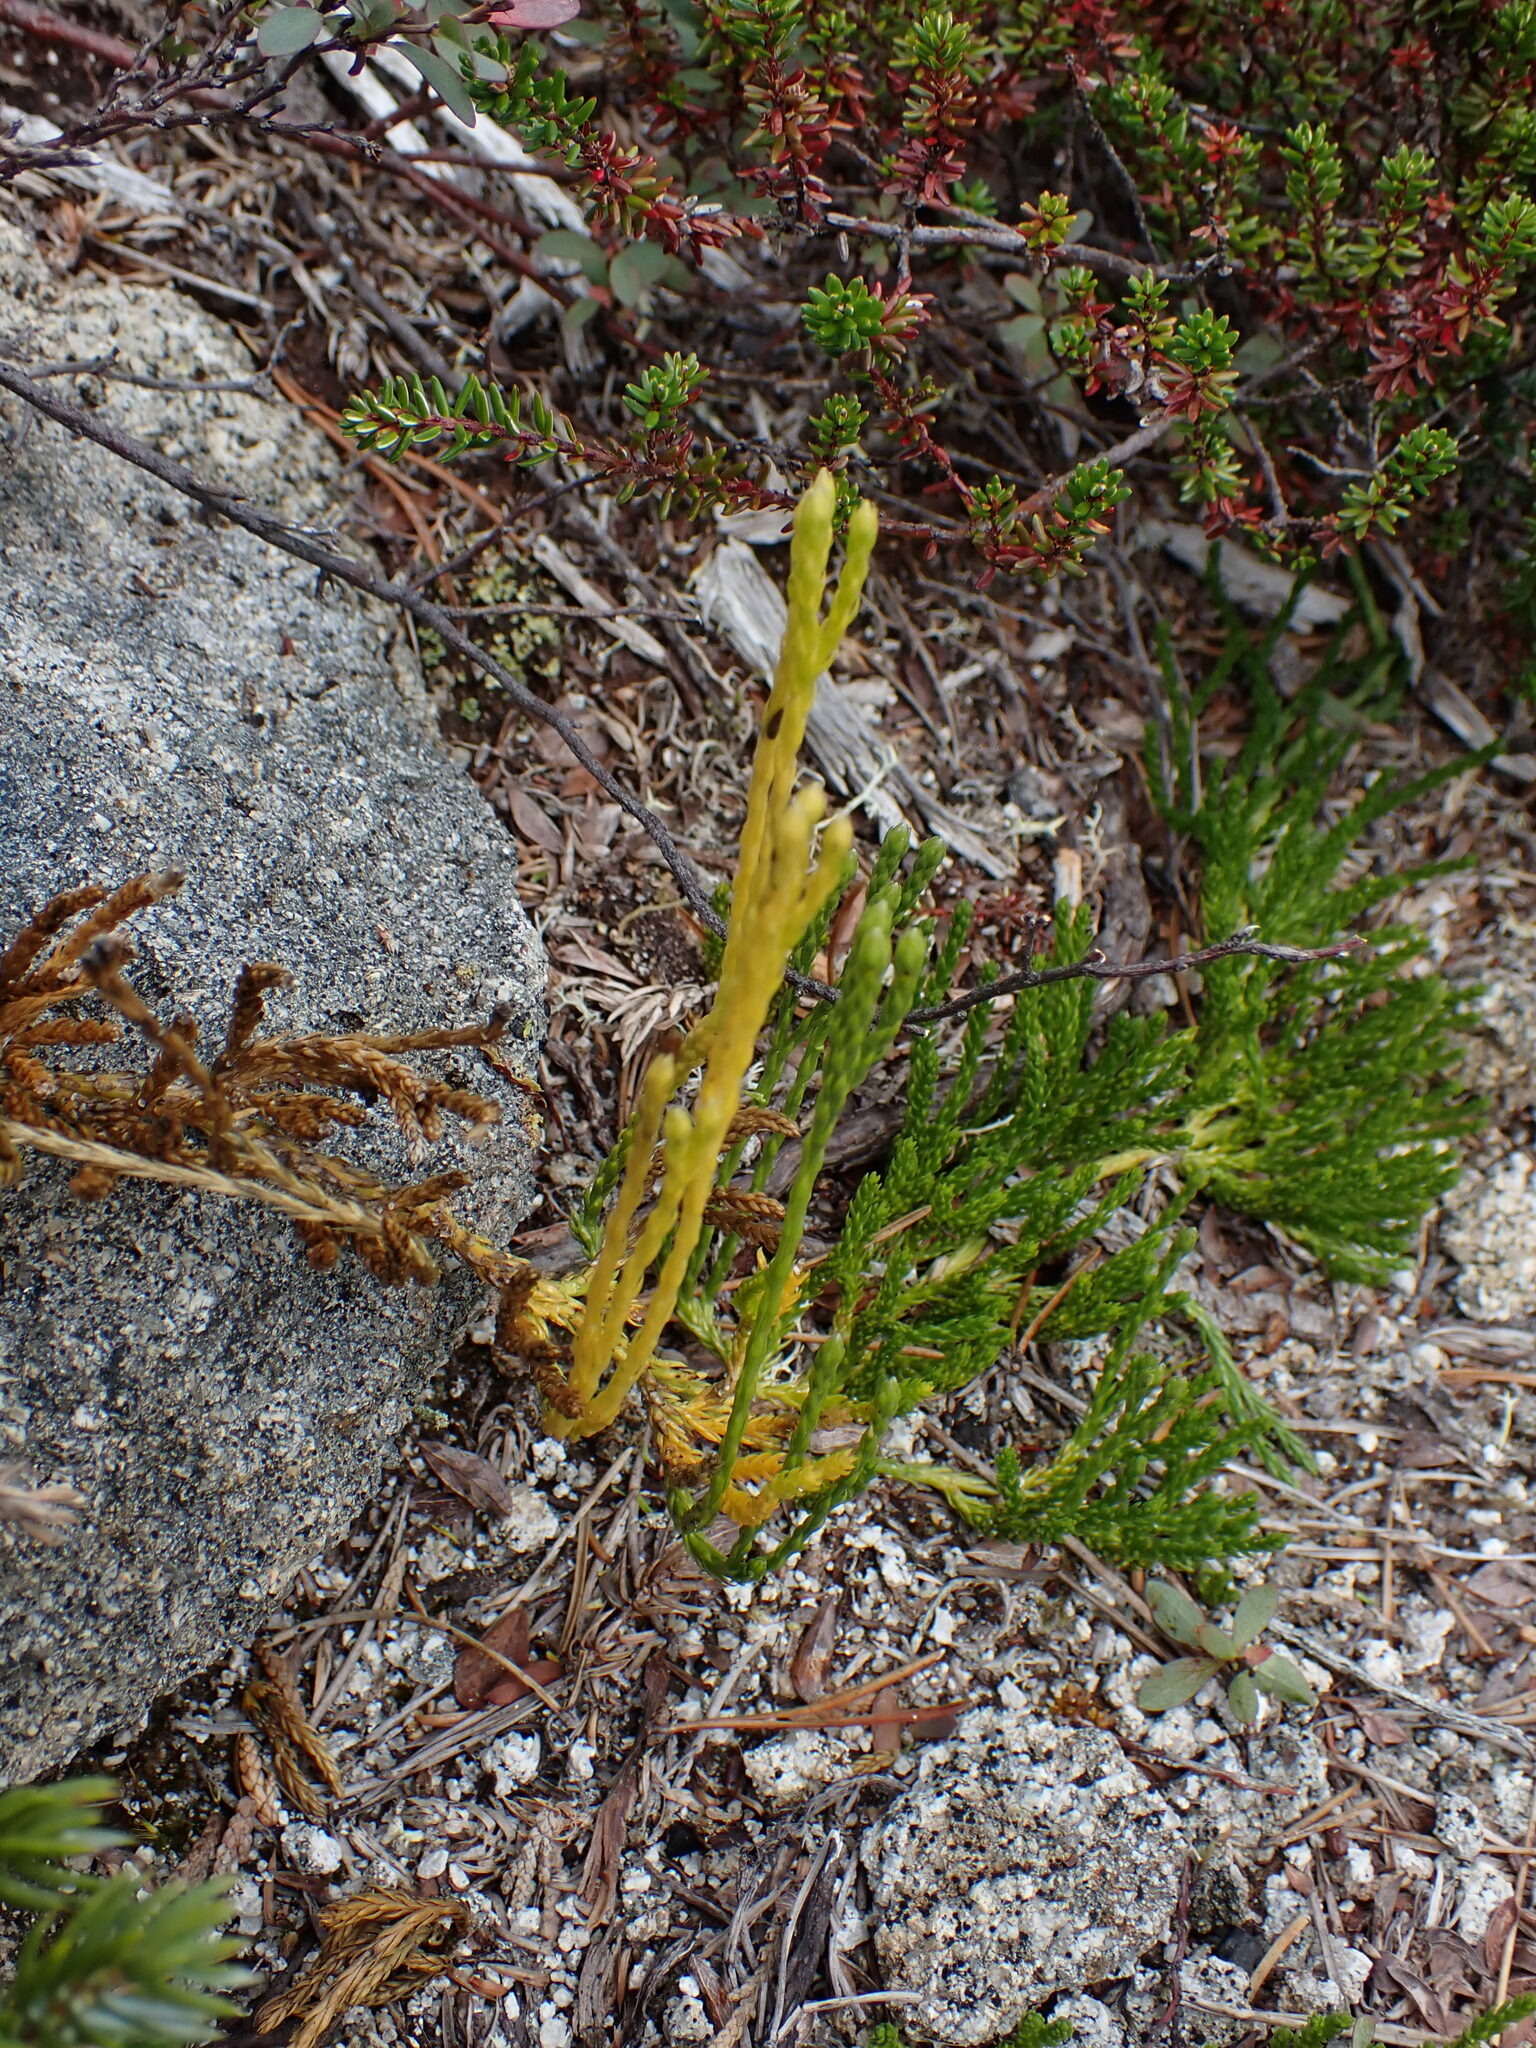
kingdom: Plantae
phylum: Tracheophyta
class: Lycopodiopsida
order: Lycopodiales
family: Lycopodiaceae
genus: Diphasiastrum
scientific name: Diphasiastrum sitchense
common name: Alaska clubmoss
